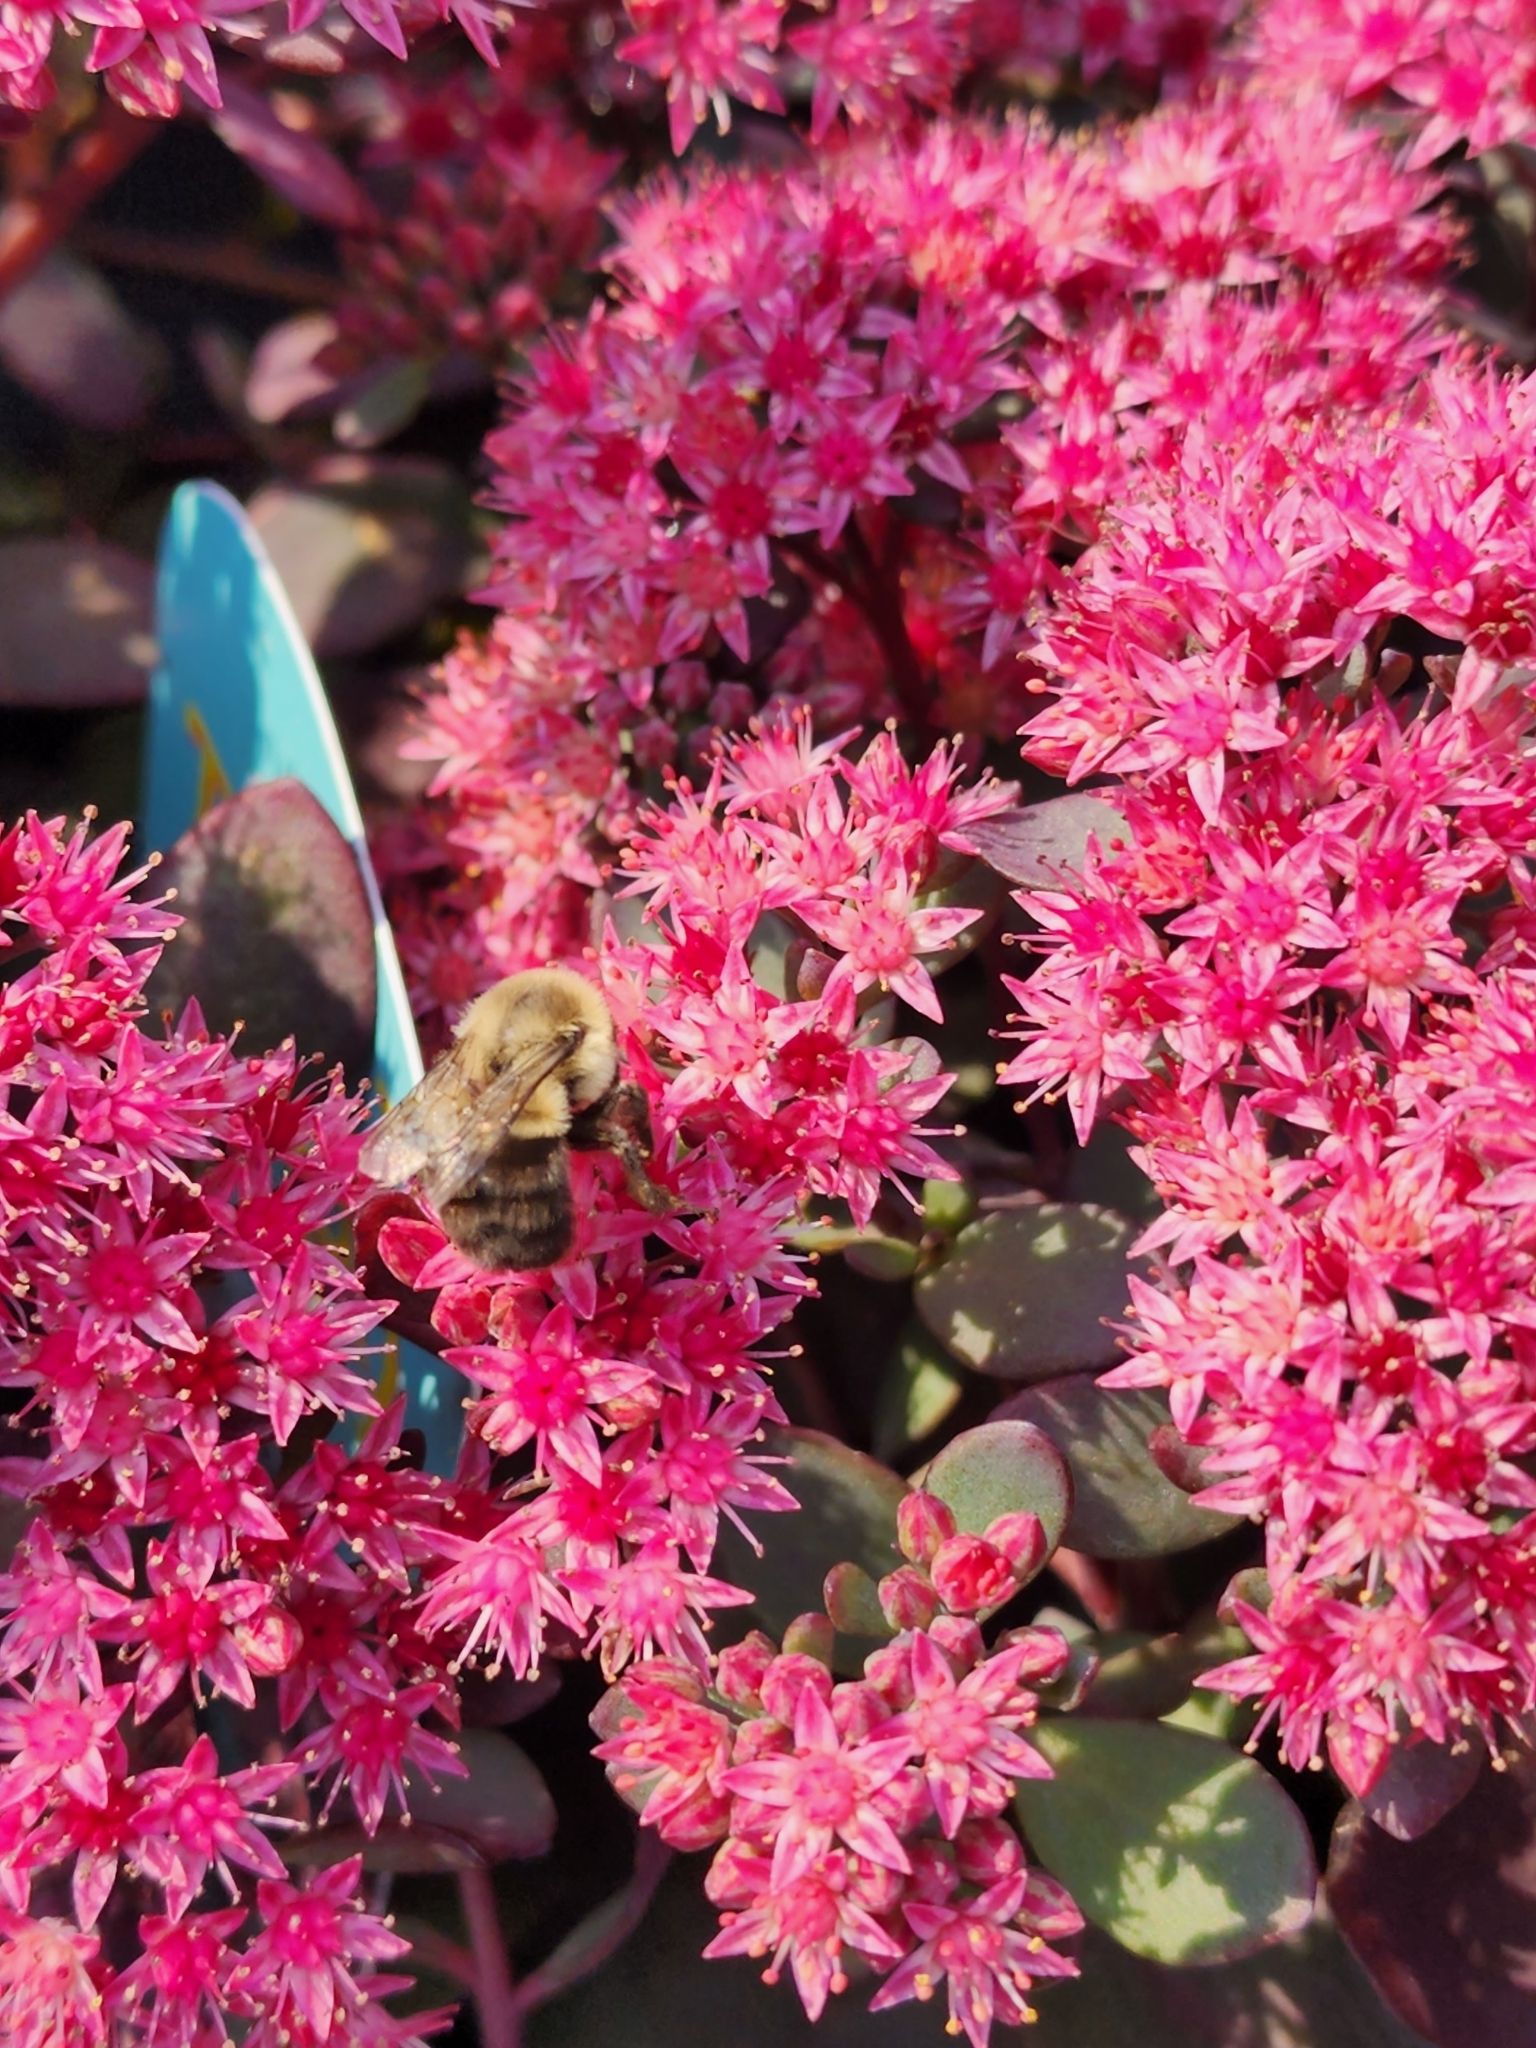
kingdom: Animalia
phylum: Arthropoda
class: Insecta
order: Hymenoptera
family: Apidae
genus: Bombus
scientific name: Bombus impatiens
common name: Common eastern bumble bee
